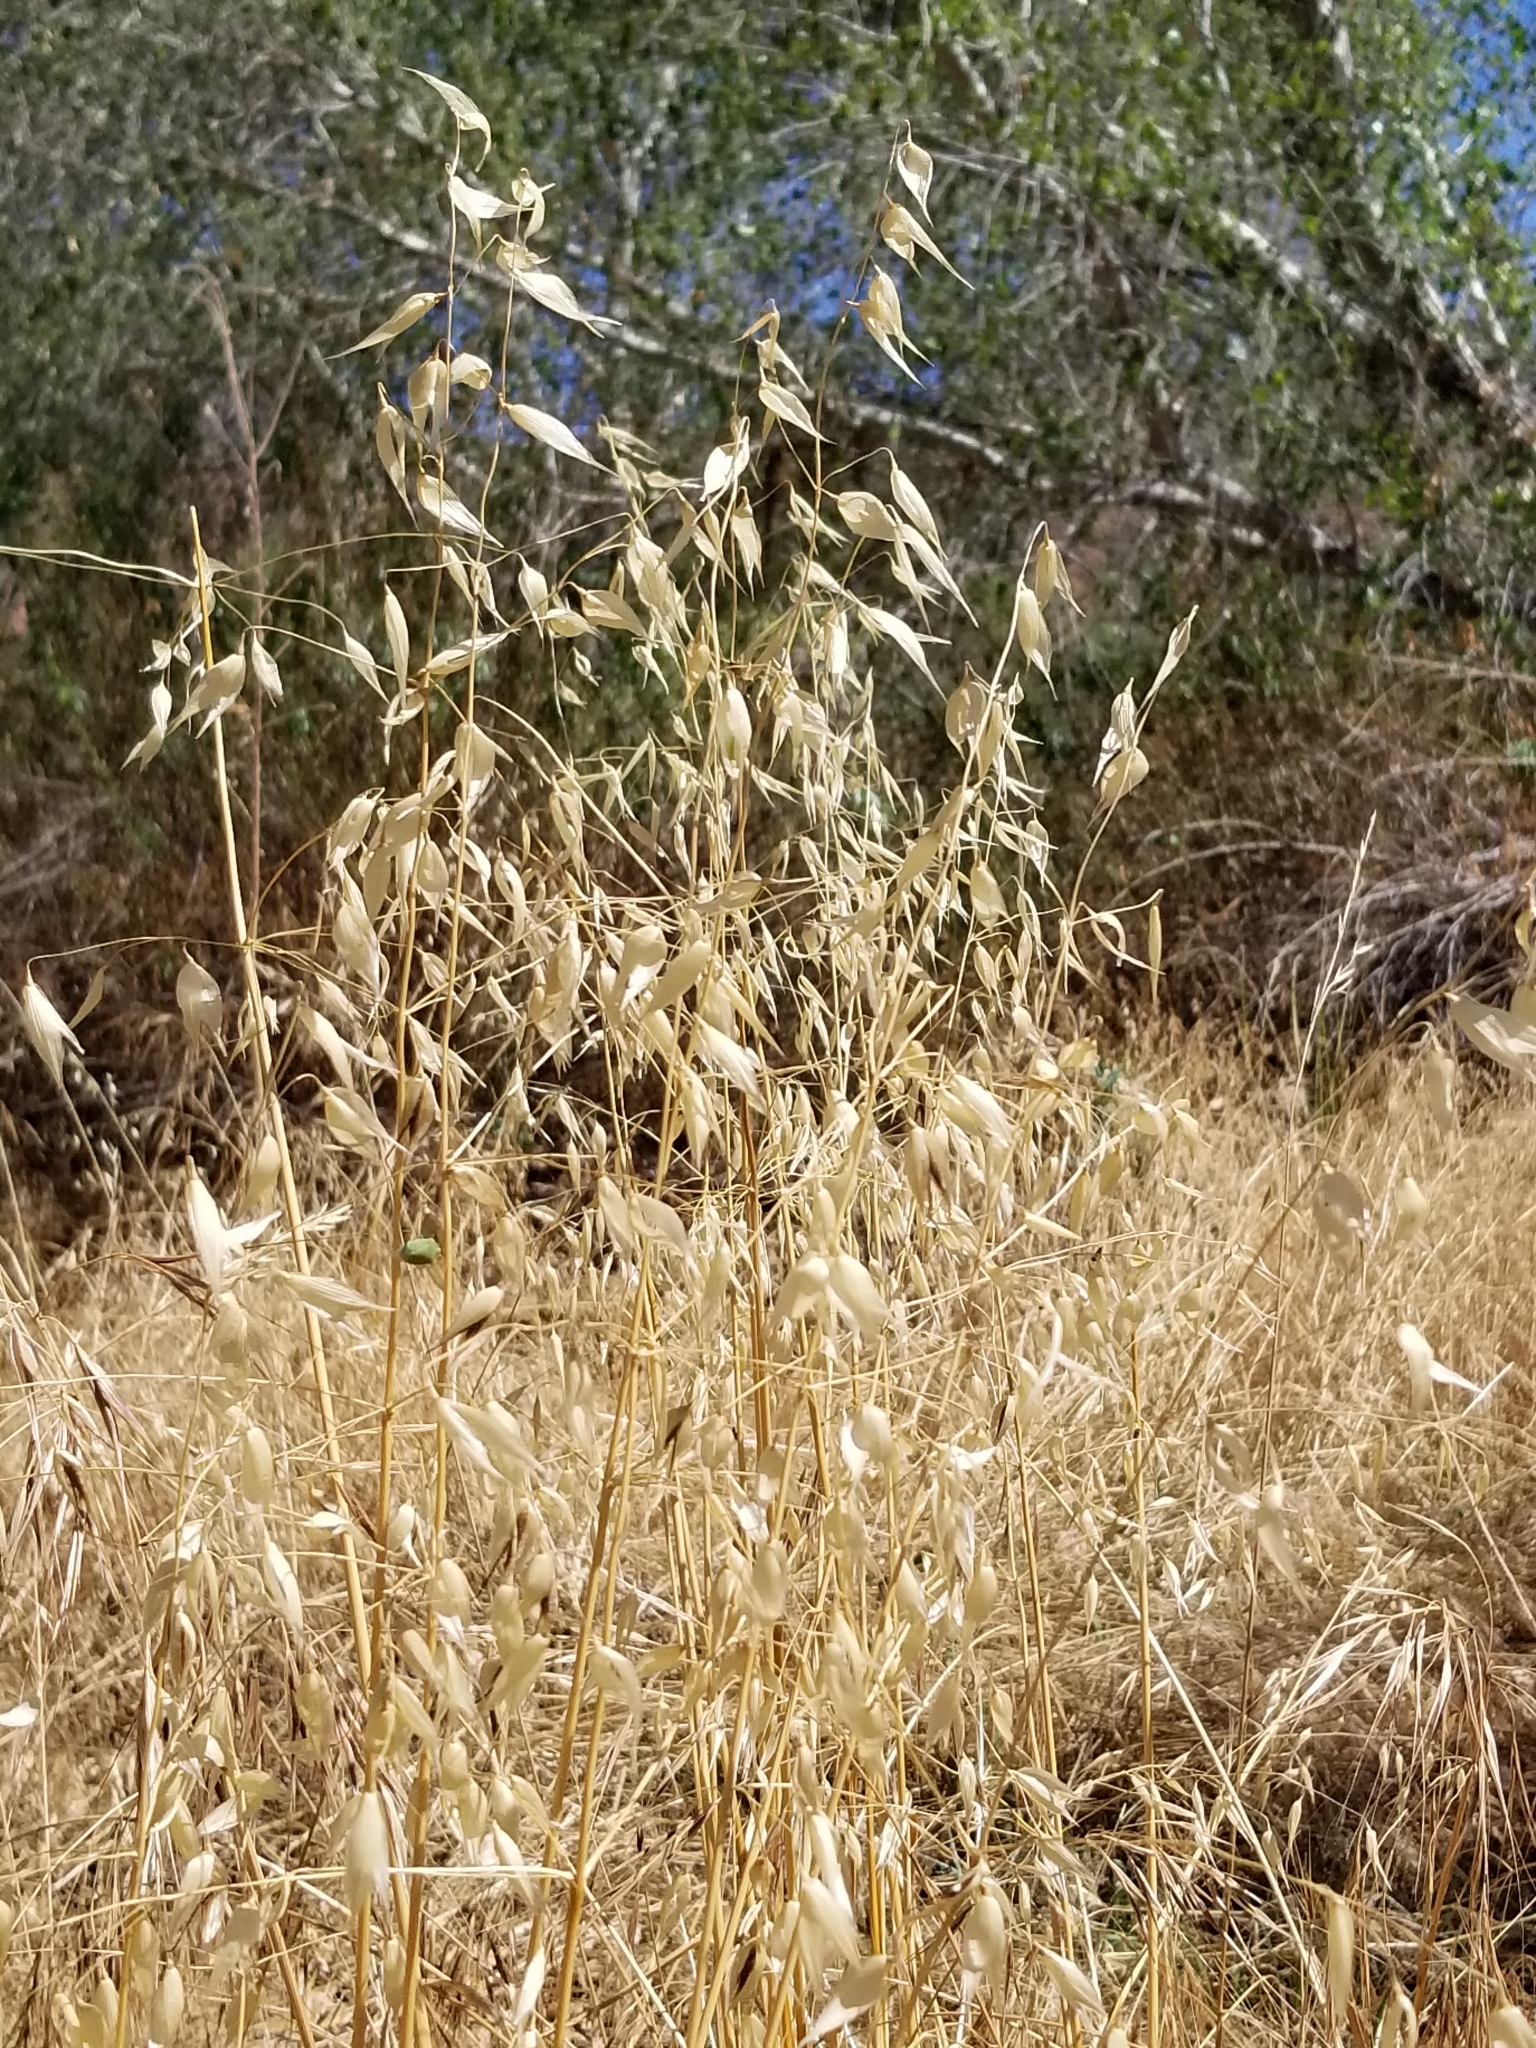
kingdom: Plantae
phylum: Tracheophyta
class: Liliopsida
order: Poales
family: Poaceae
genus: Avena
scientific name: Avena fatua
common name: Wild oat
